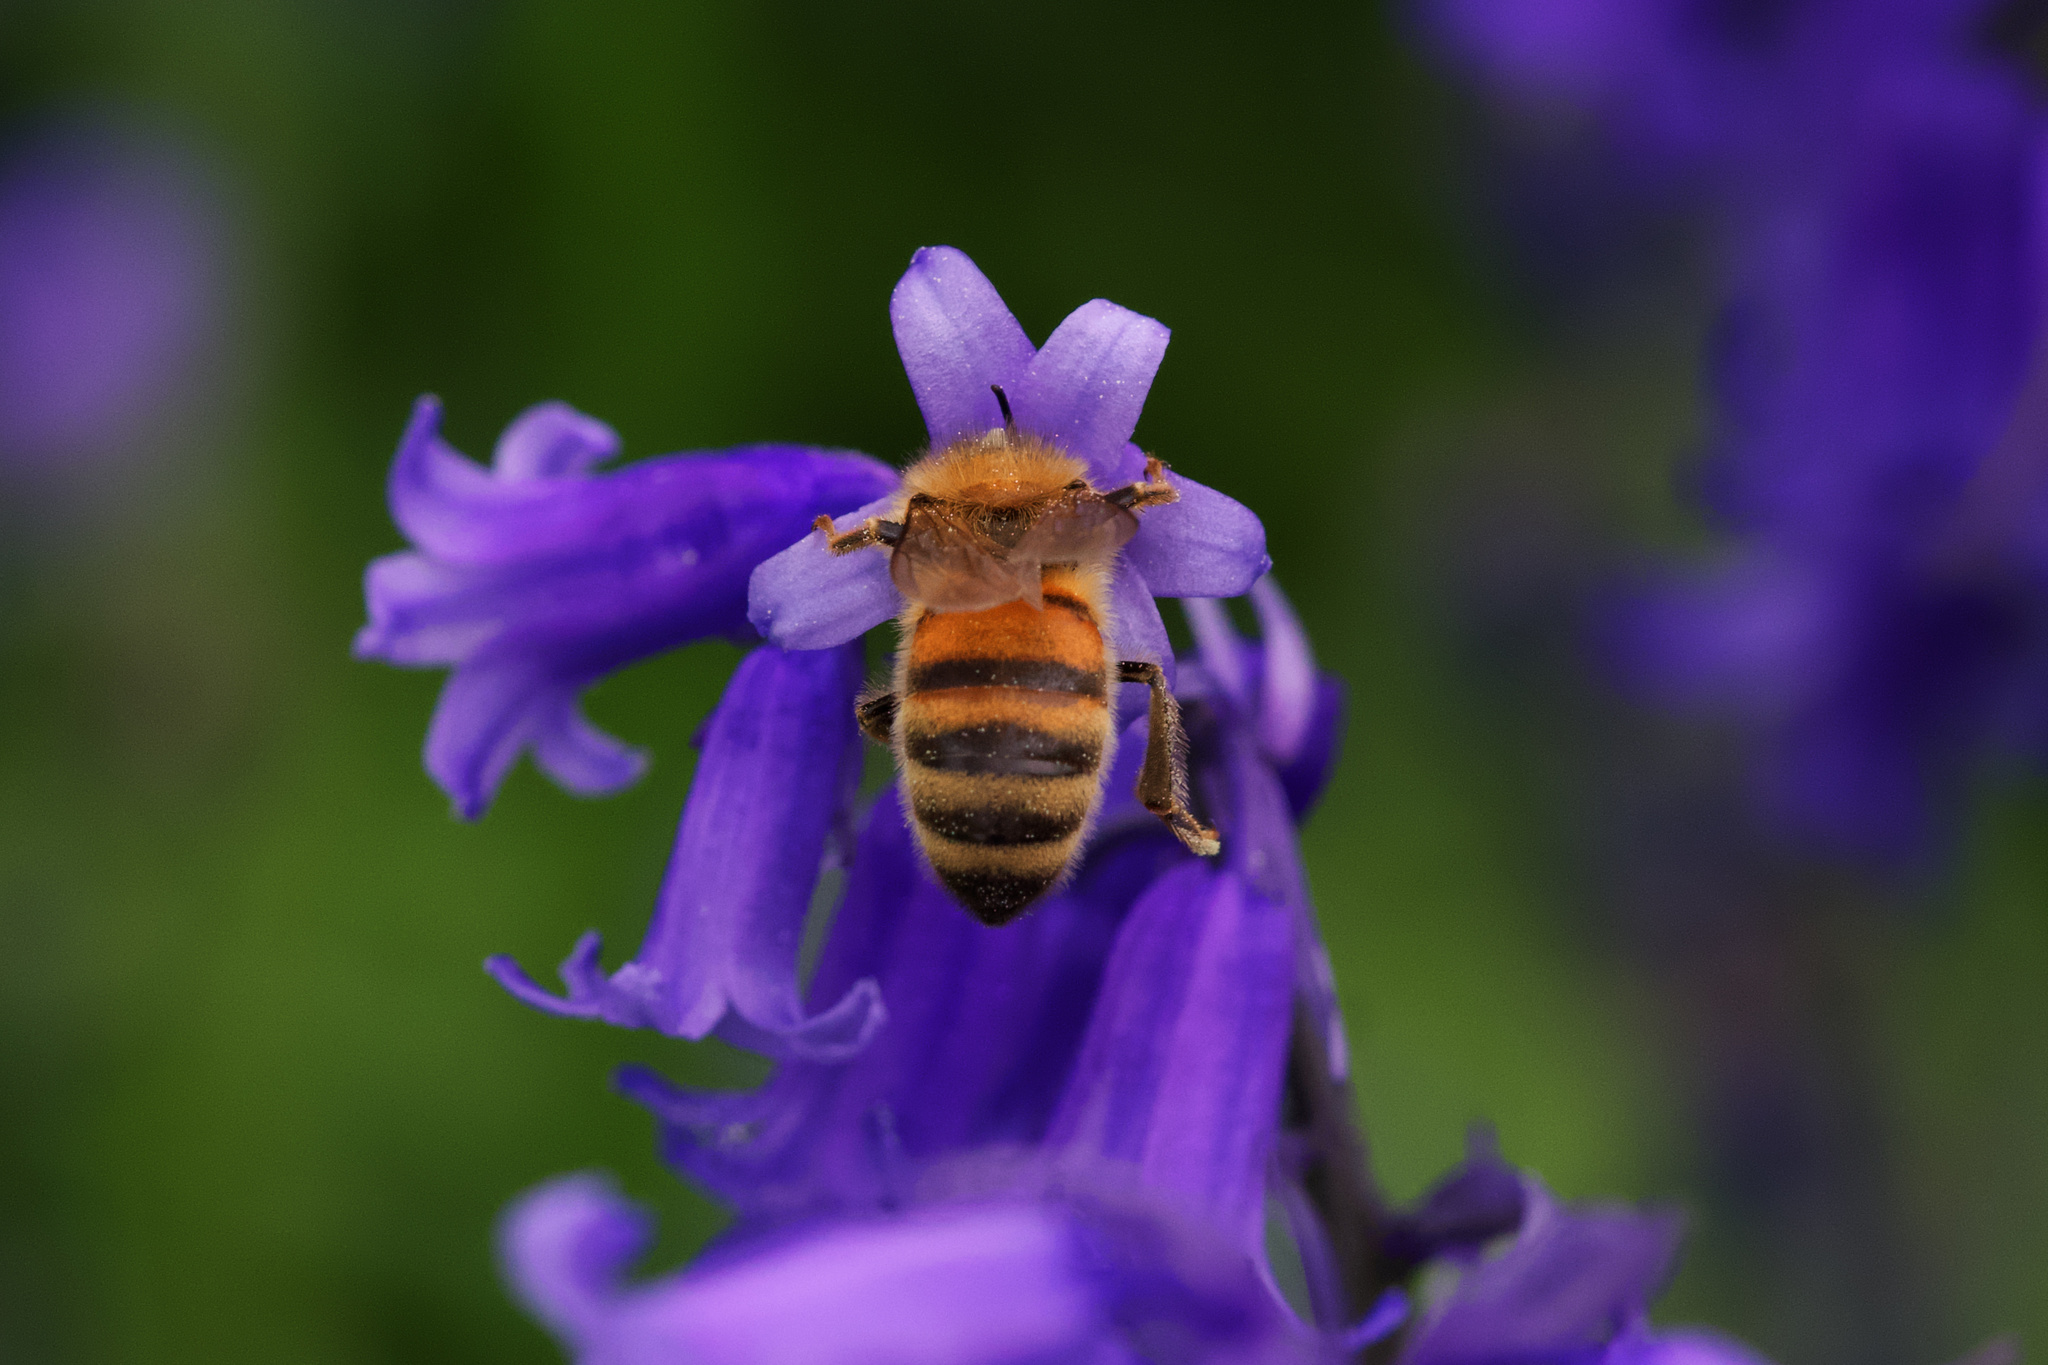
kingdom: Animalia
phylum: Arthropoda
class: Insecta
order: Hymenoptera
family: Apidae
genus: Apis
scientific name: Apis mellifera
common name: Honey bee
